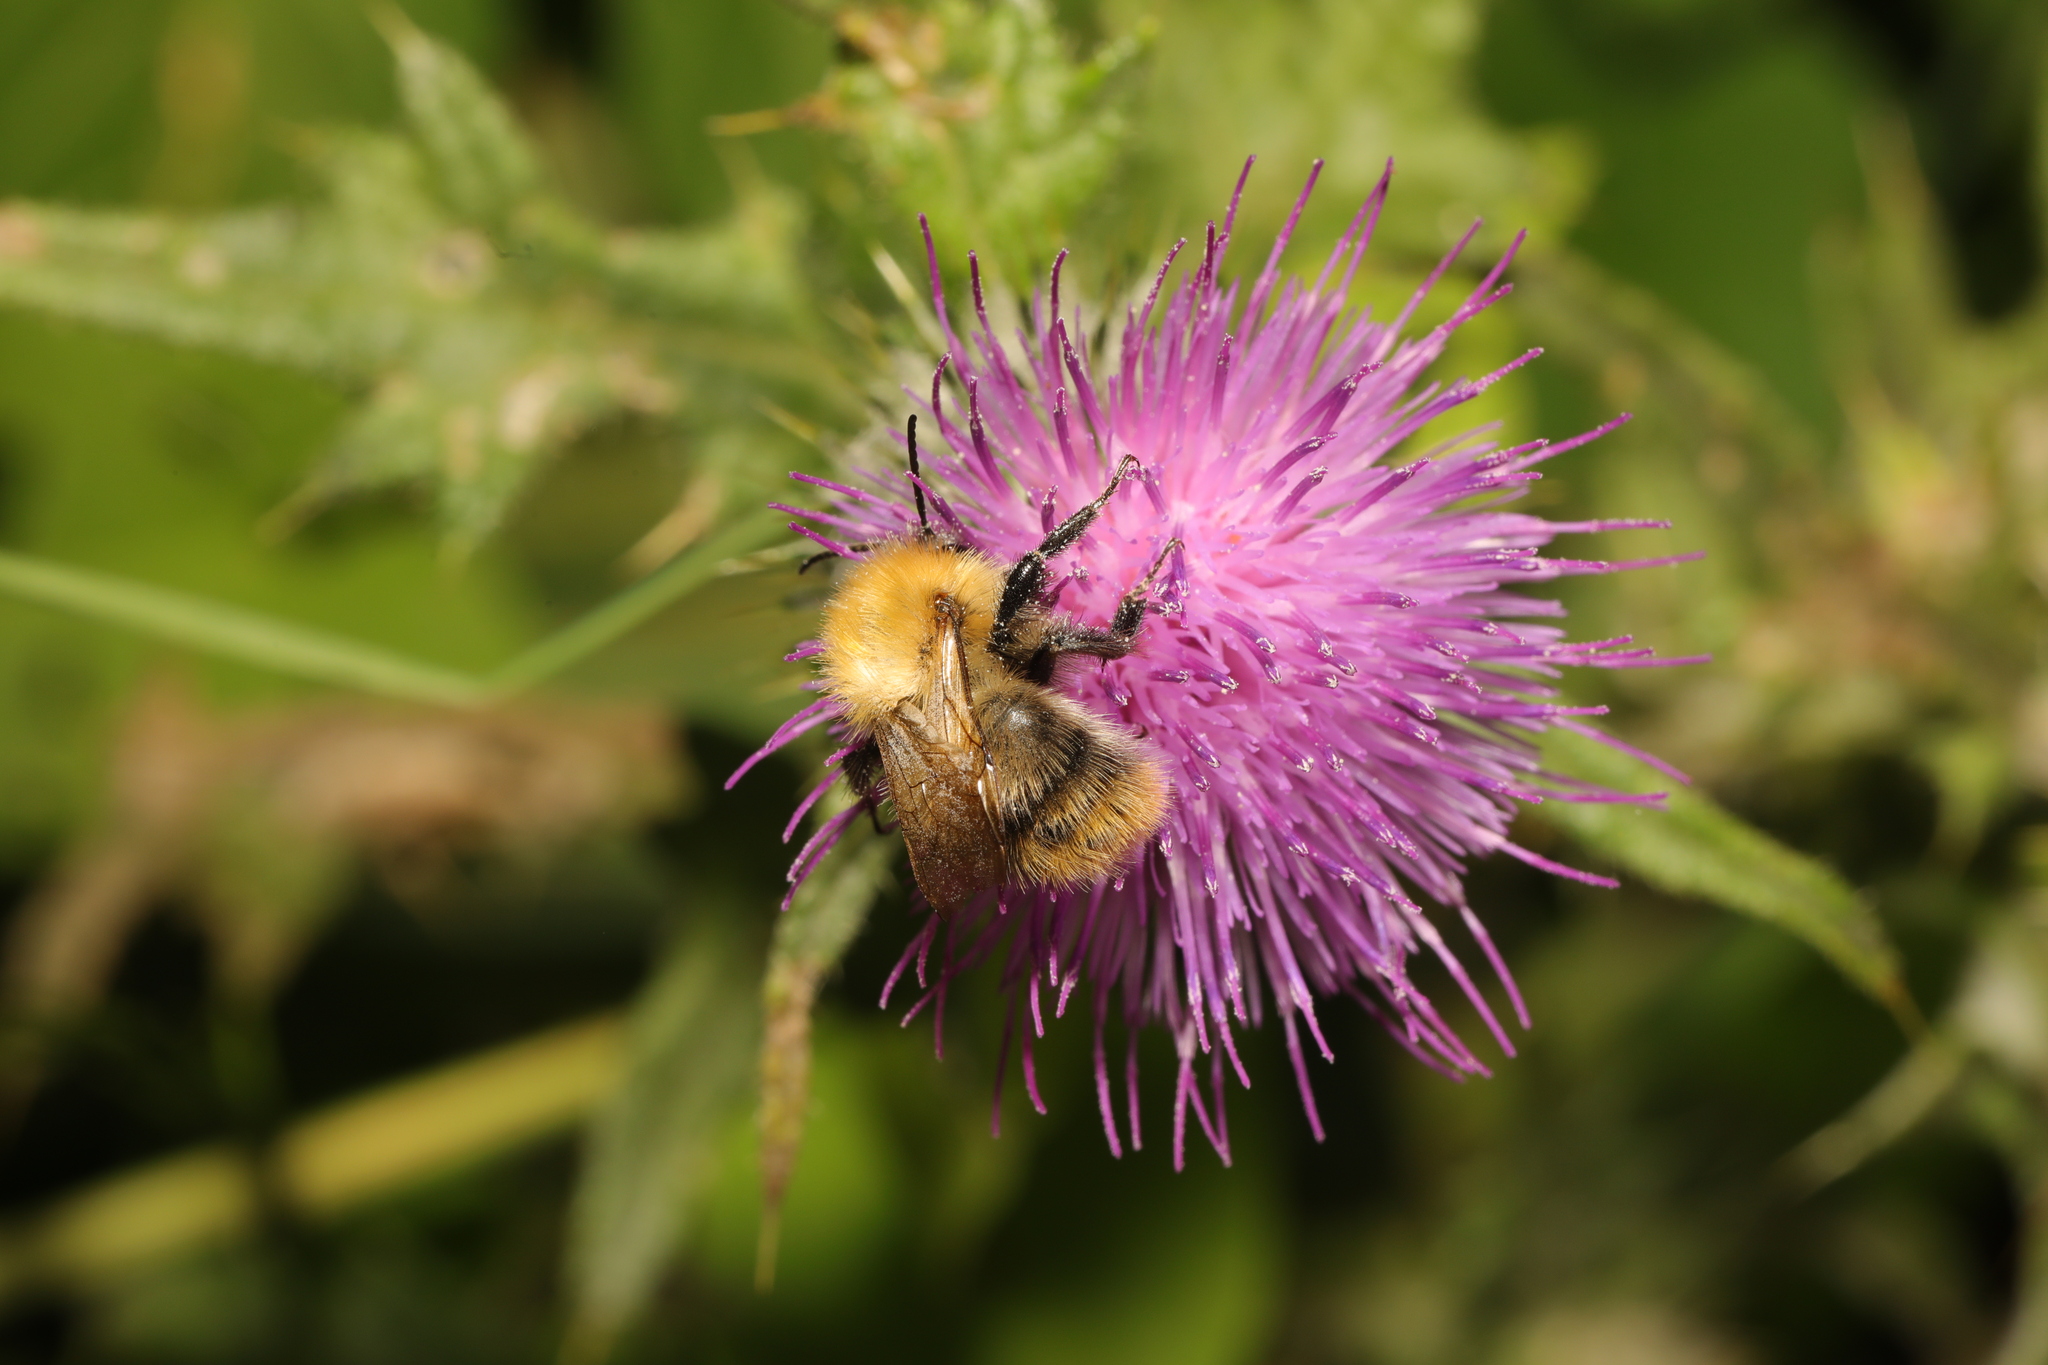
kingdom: Animalia
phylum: Arthropoda
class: Insecta
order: Hymenoptera
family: Apidae
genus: Bombus
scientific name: Bombus pascuorum
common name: Common carder bee
